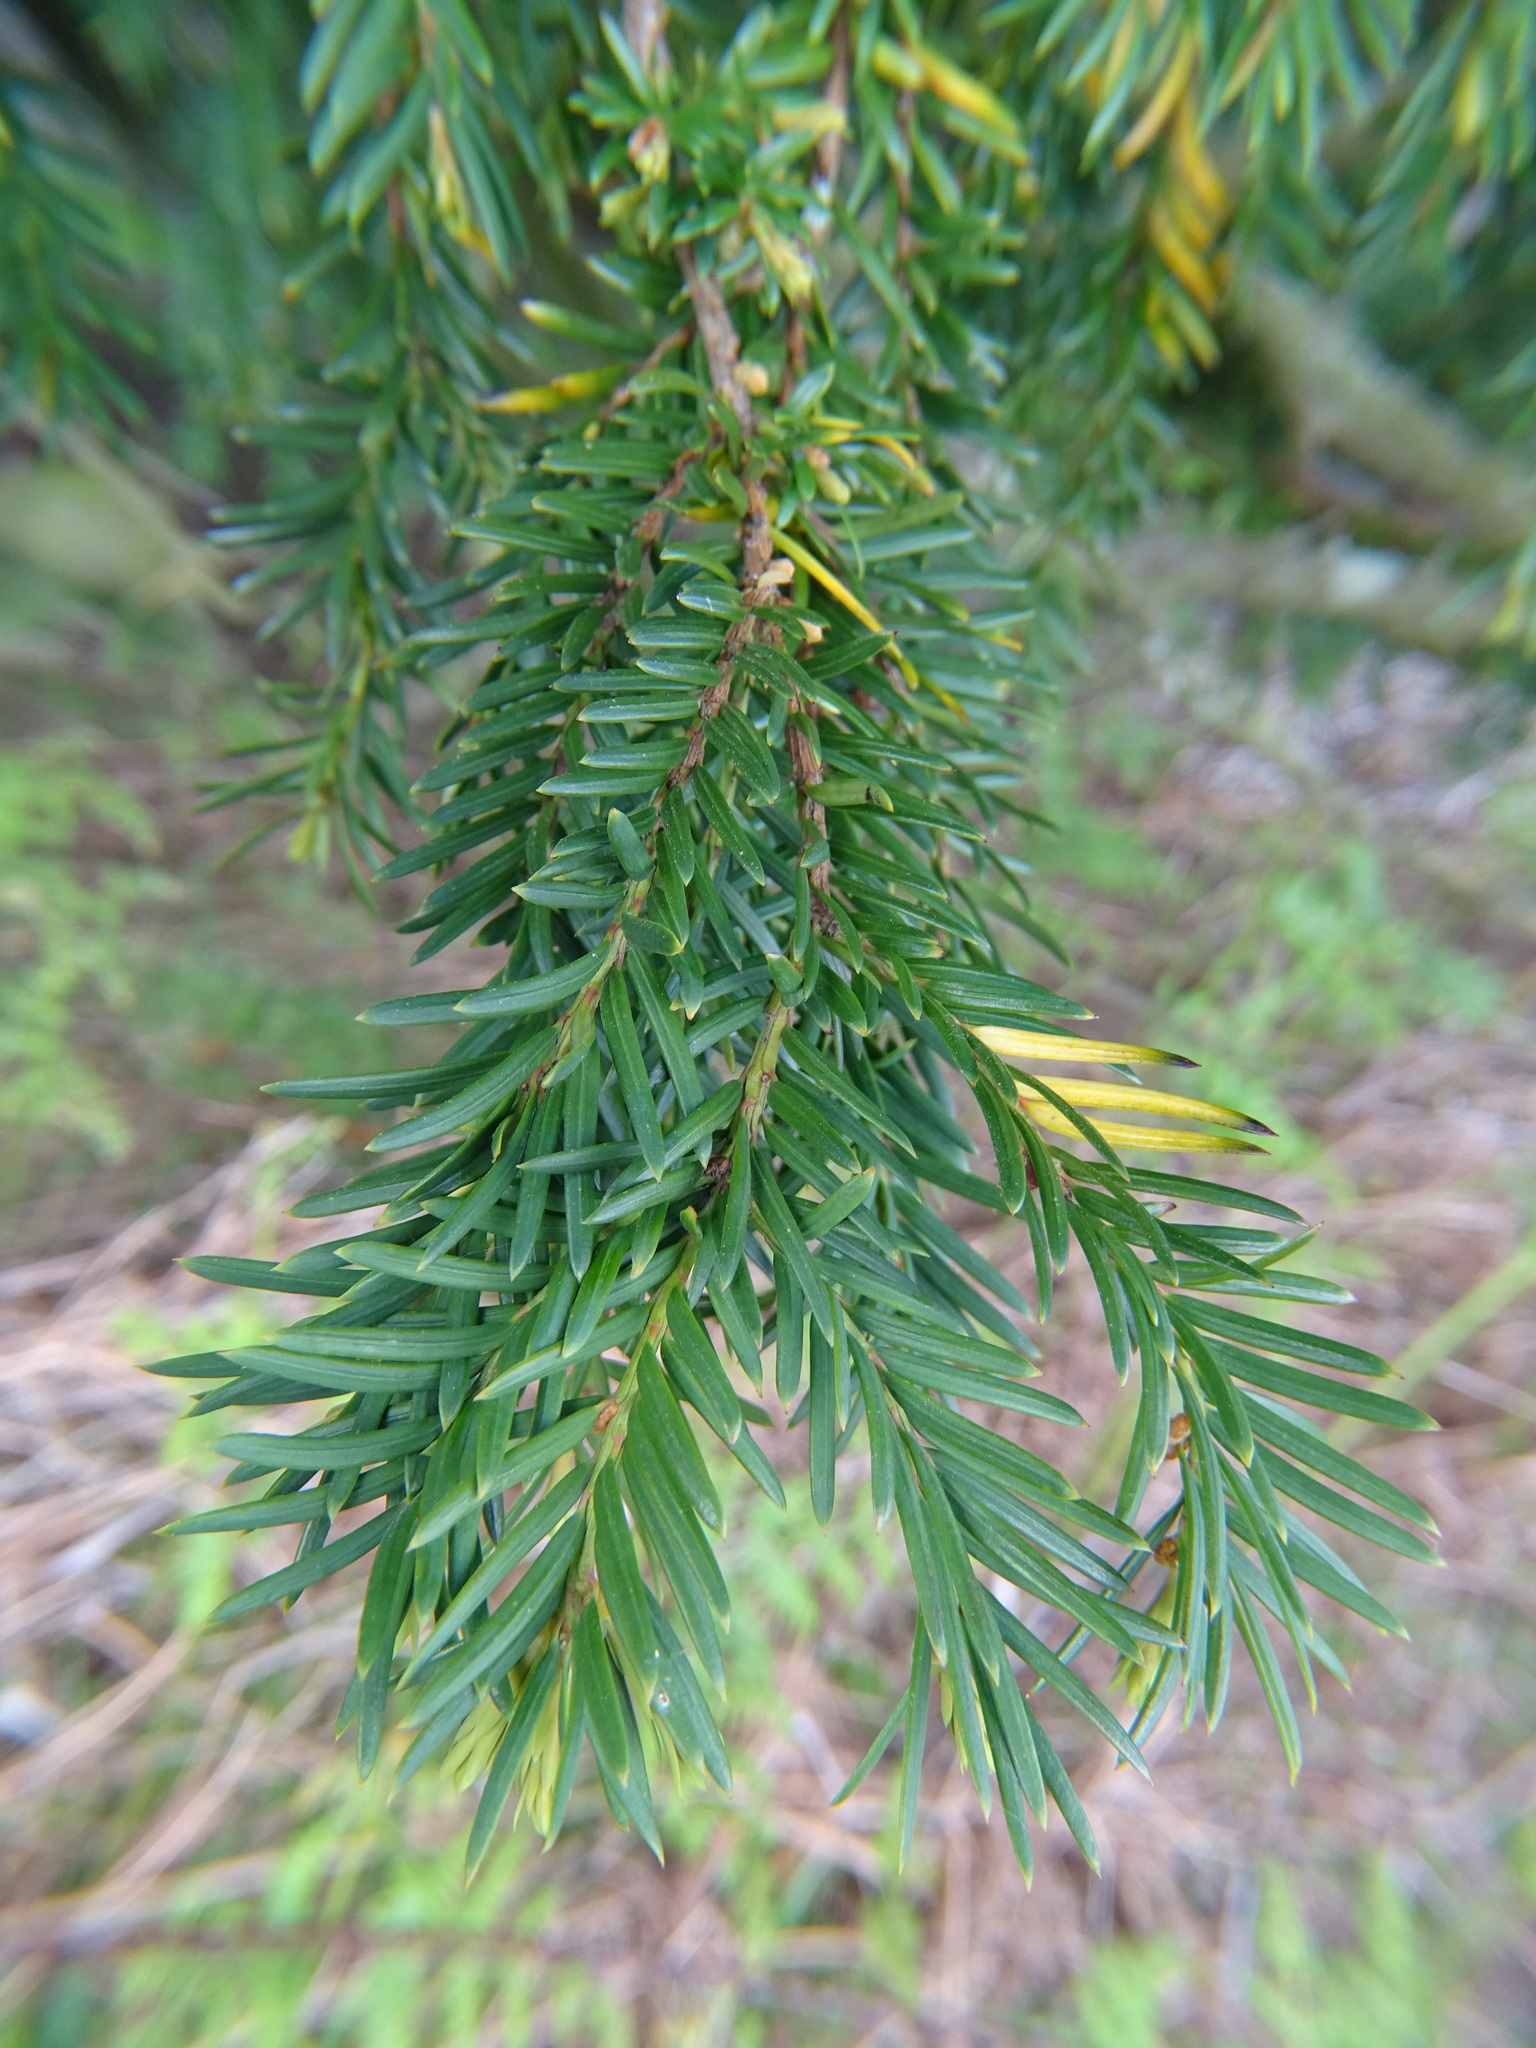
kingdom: Plantae
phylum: Tracheophyta
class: Pinopsida
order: Pinales
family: Taxaceae
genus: Taxus
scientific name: Taxus baccata
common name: Yew
